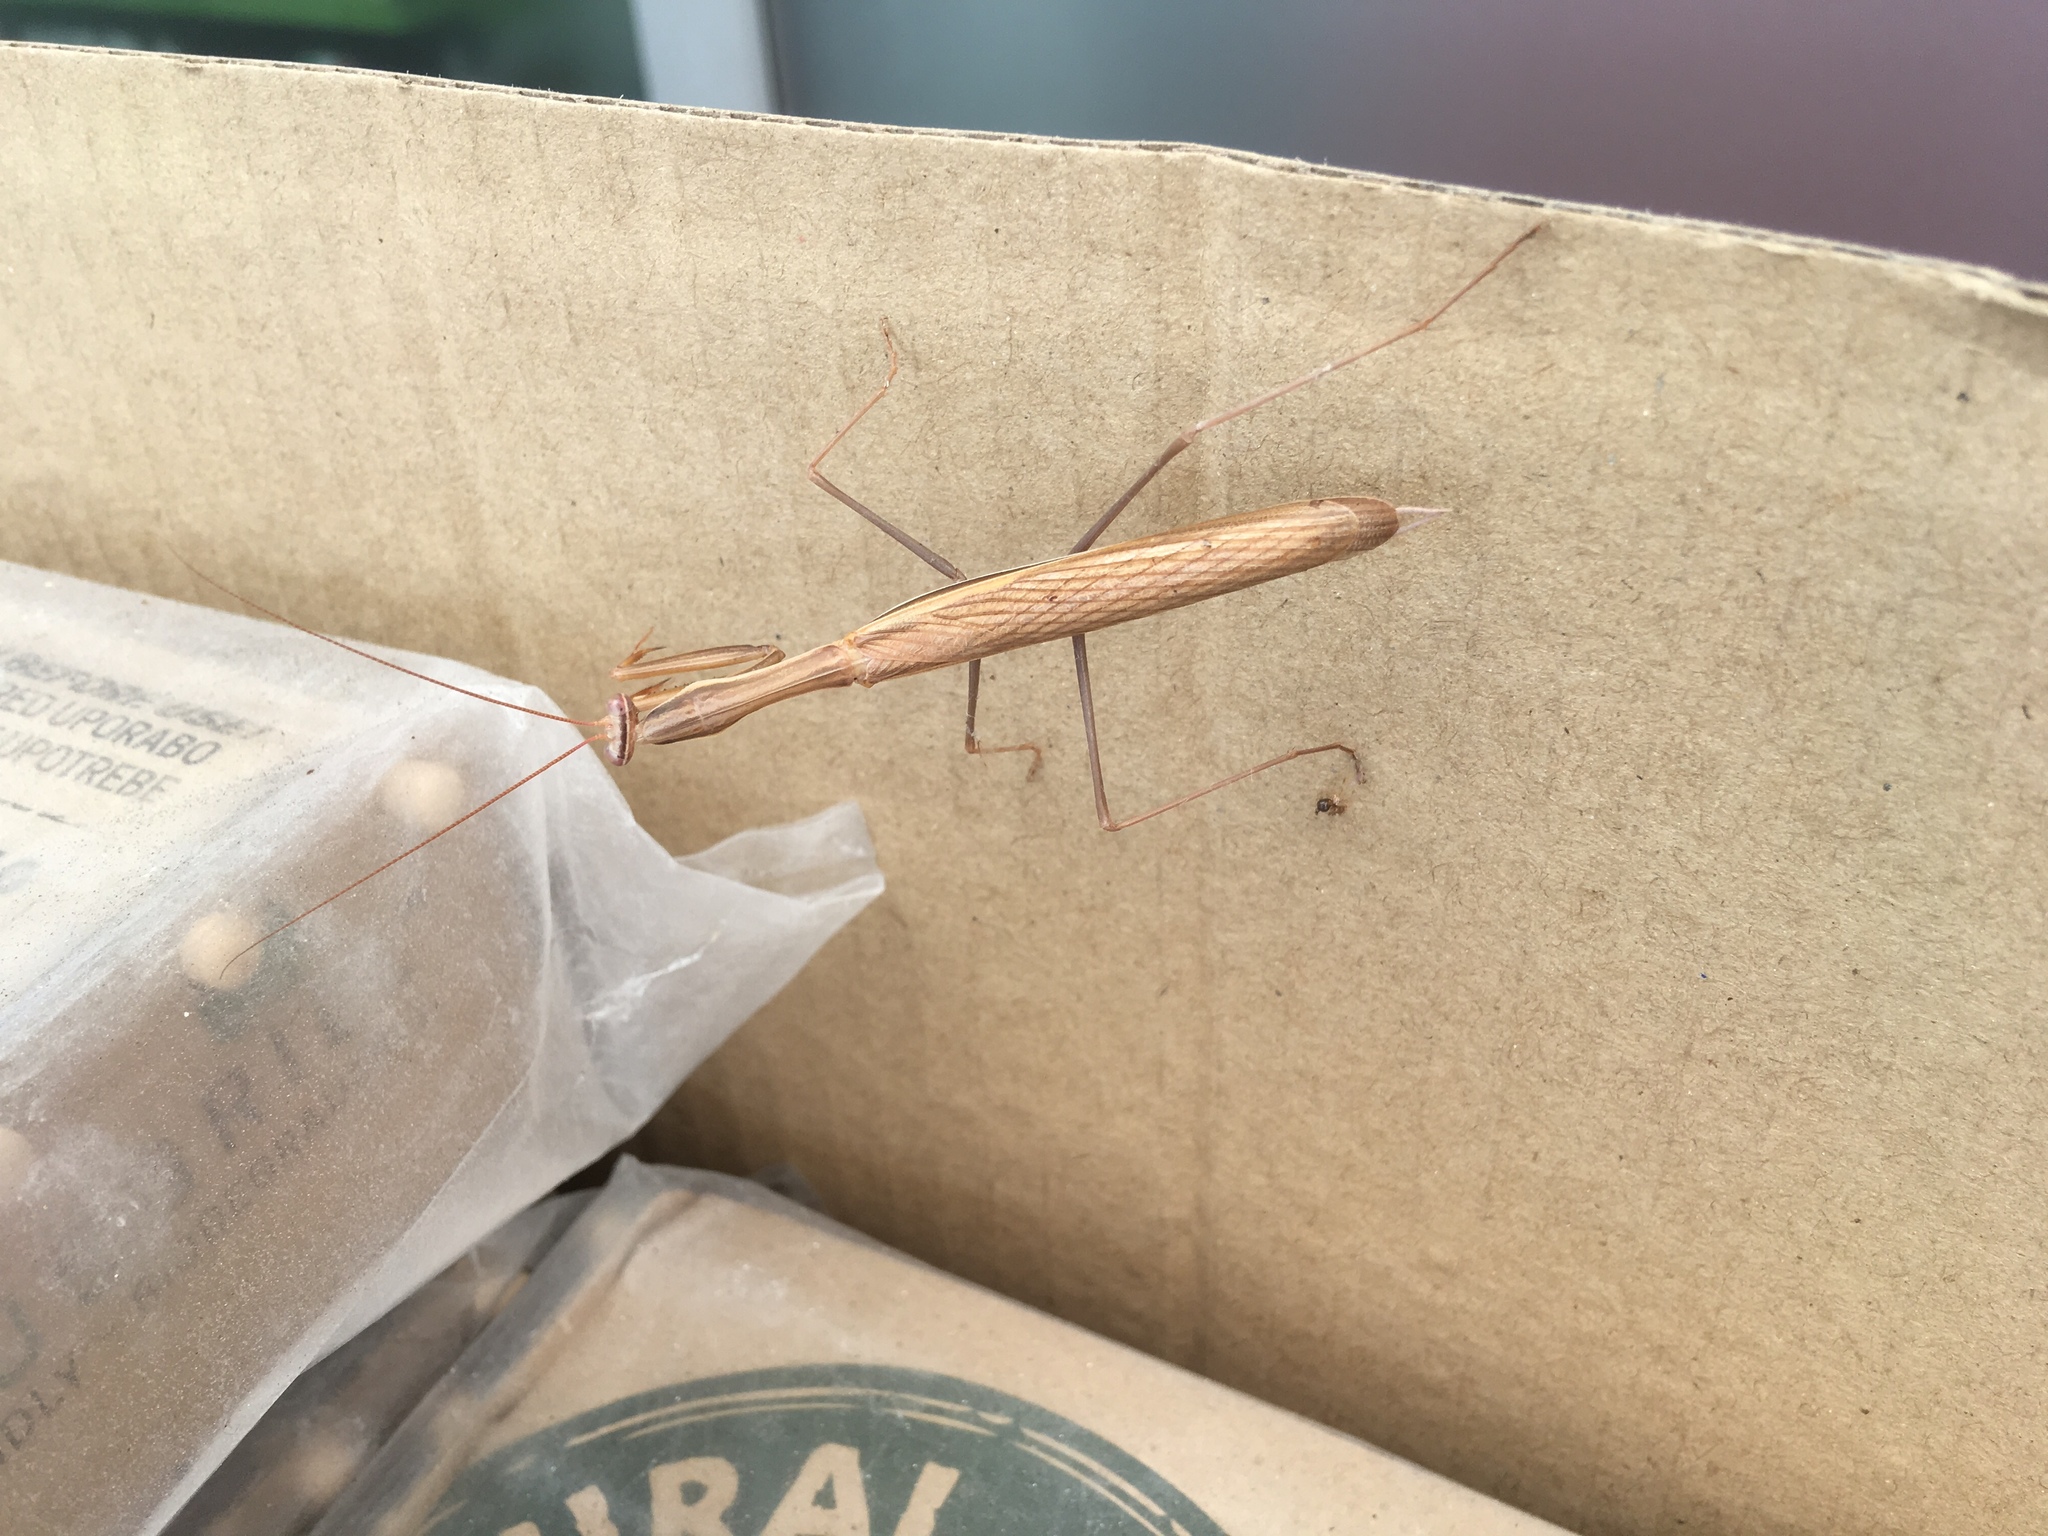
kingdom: Animalia
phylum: Arthropoda
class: Insecta
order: Mantodea
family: Mantidae
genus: Mantis
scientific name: Mantis religiosa
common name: Praying mantis
